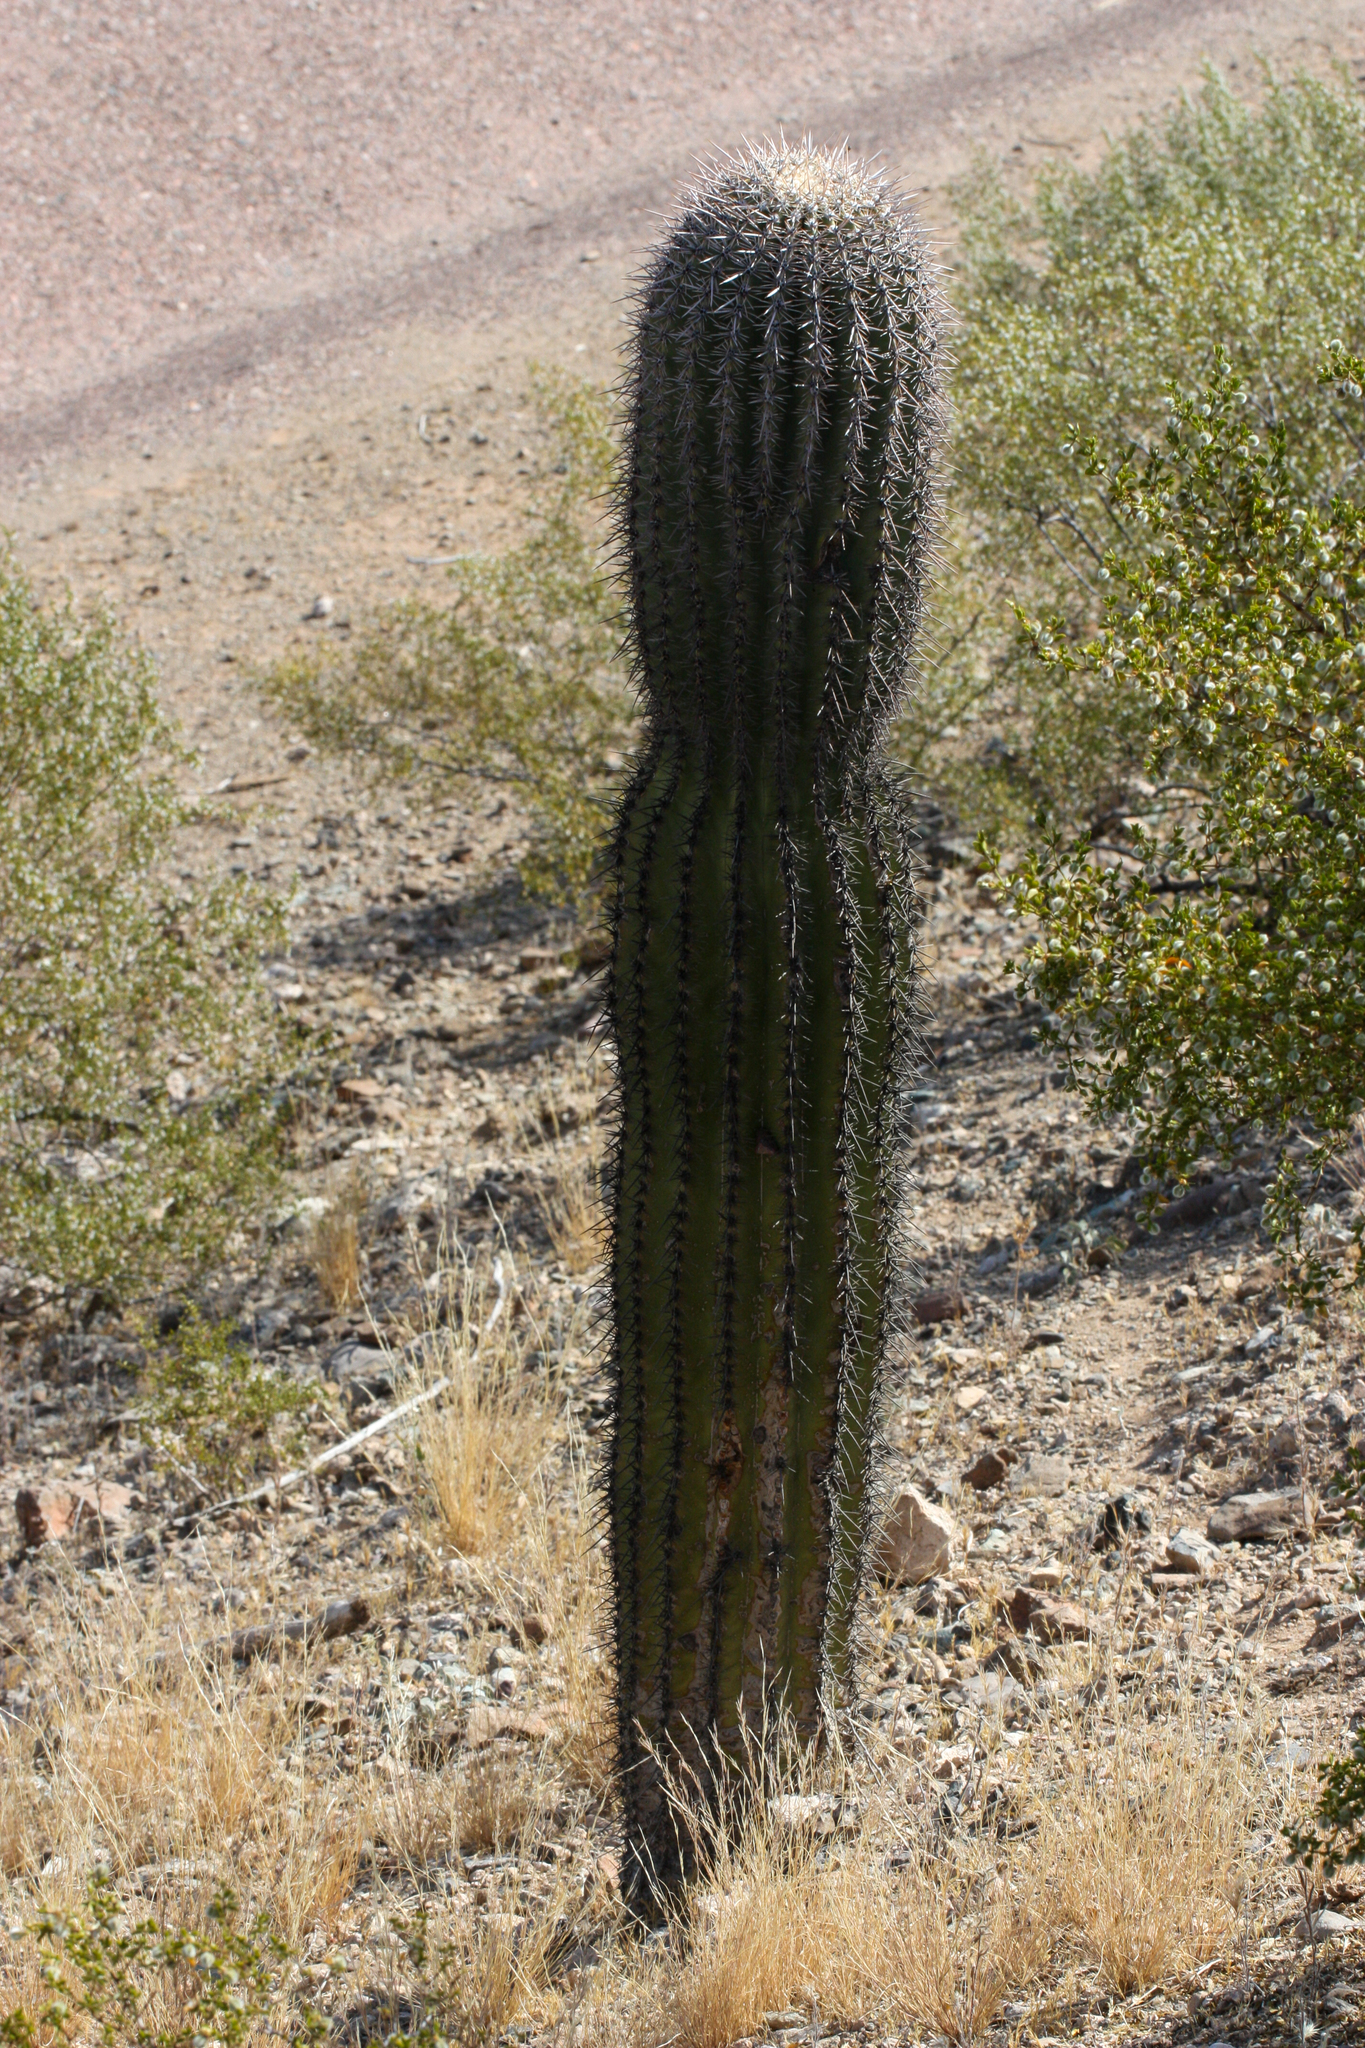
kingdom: Plantae
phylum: Tracheophyta
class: Magnoliopsida
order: Caryophyllales
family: Cactaceae
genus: Carnegiea
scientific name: Carnegiea gigantea
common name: Saguaro
